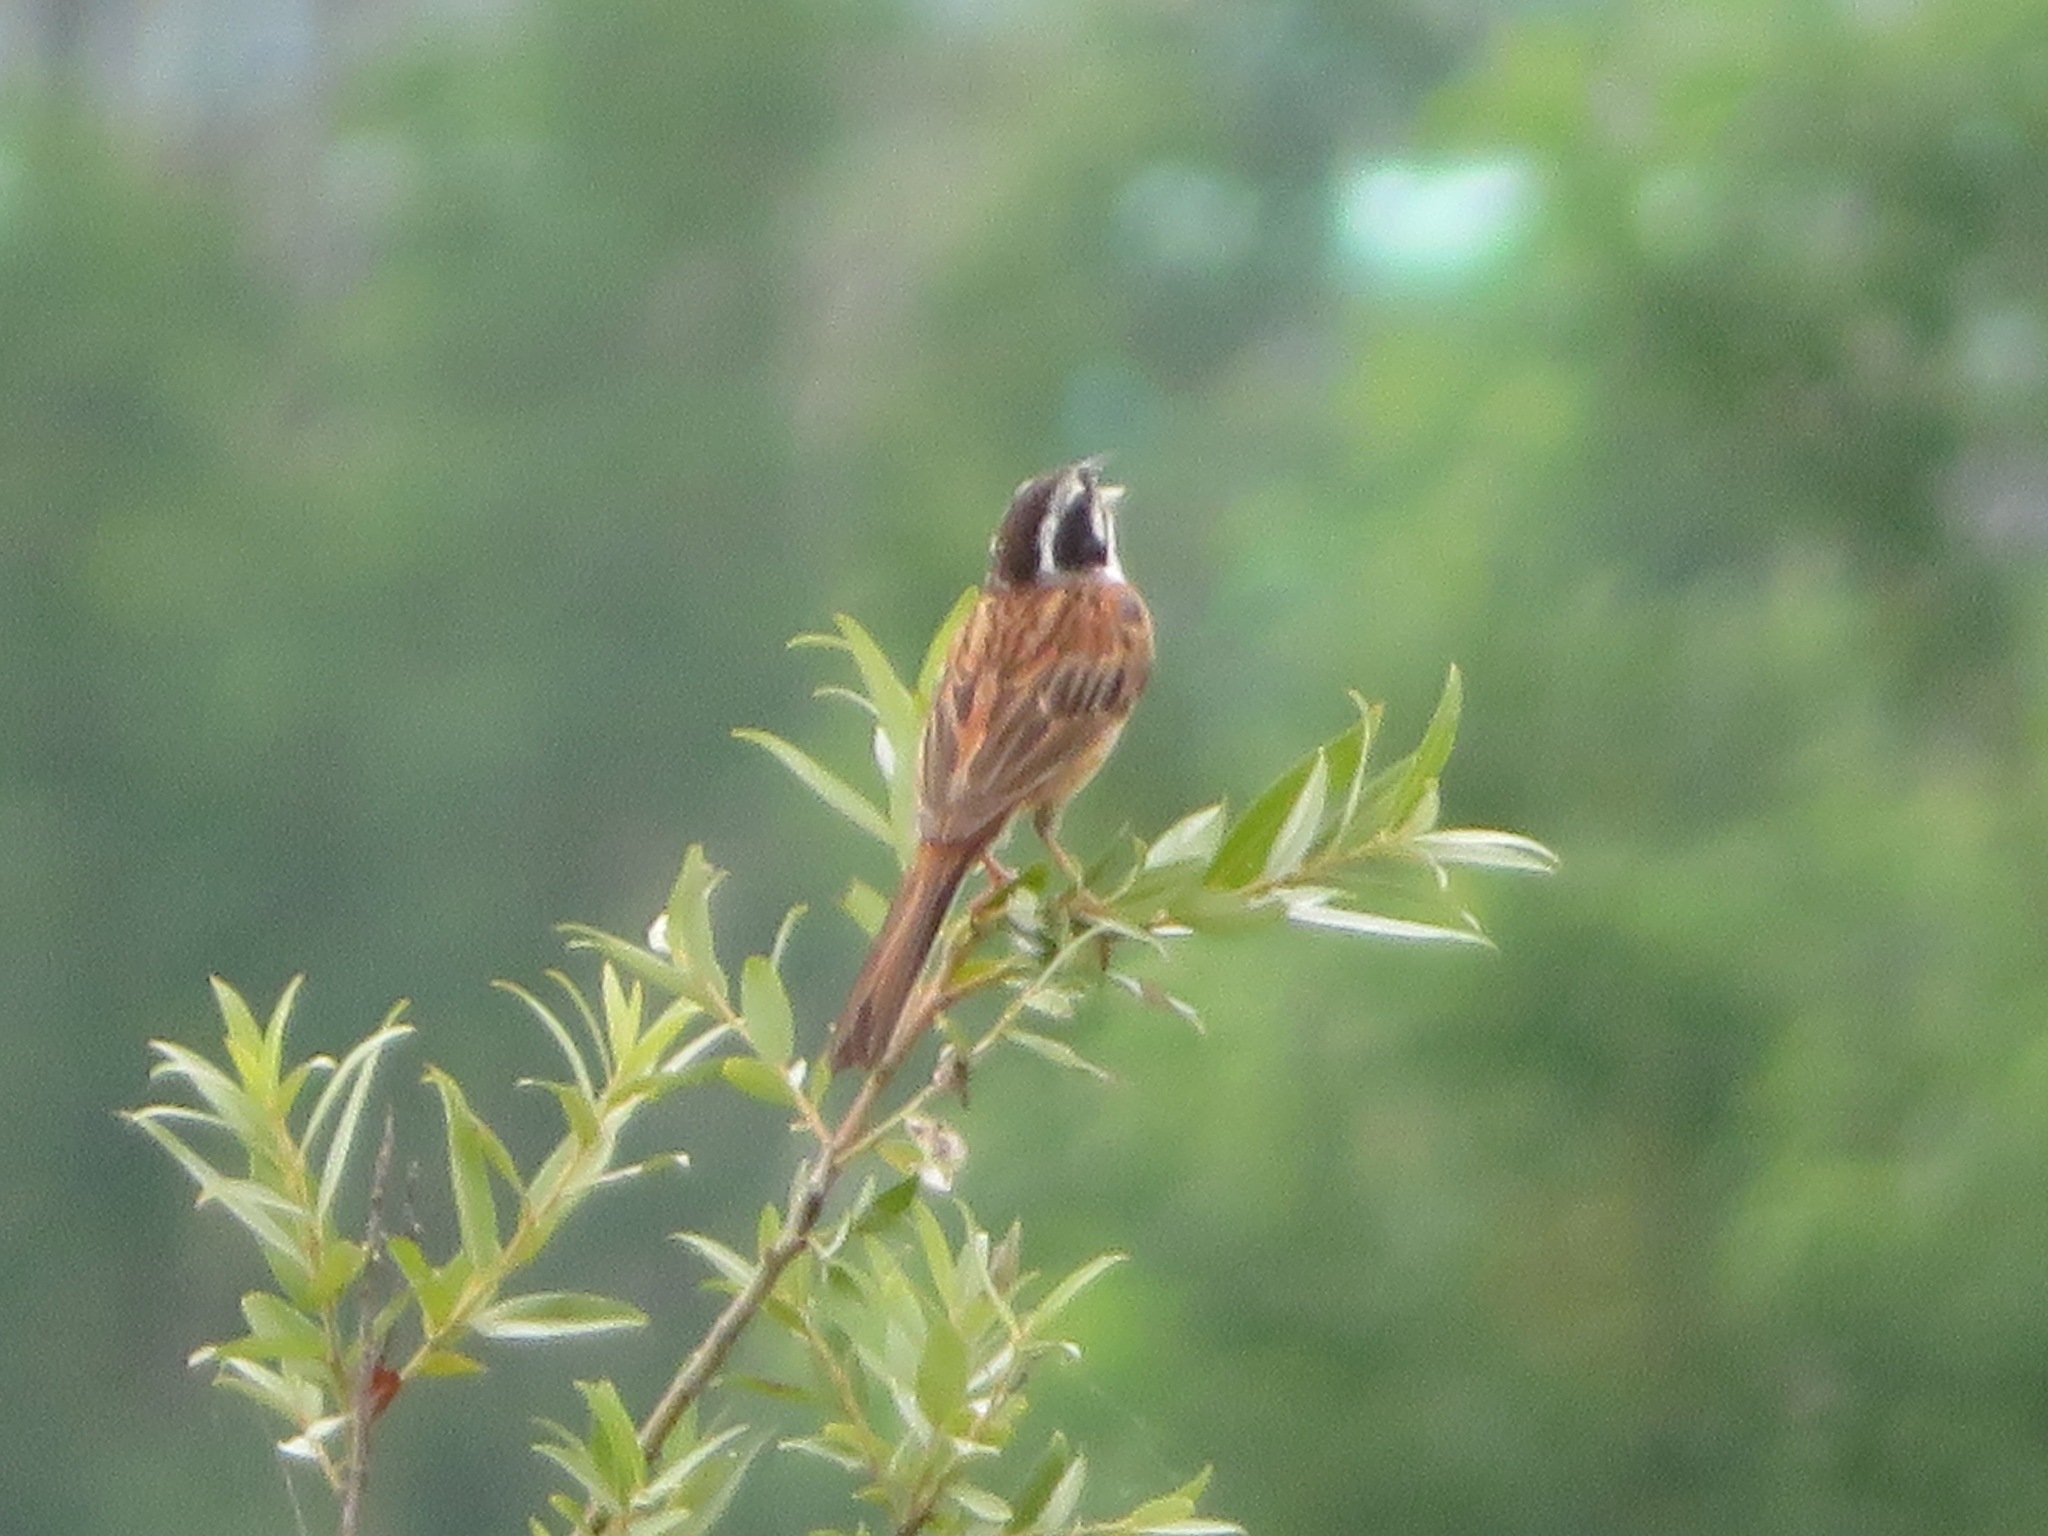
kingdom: Animalia
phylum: Chordata
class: Aves
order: Passeriformes
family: Emberizidae
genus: Emberiza
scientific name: Emberiza cioides
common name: Meadow bunting
